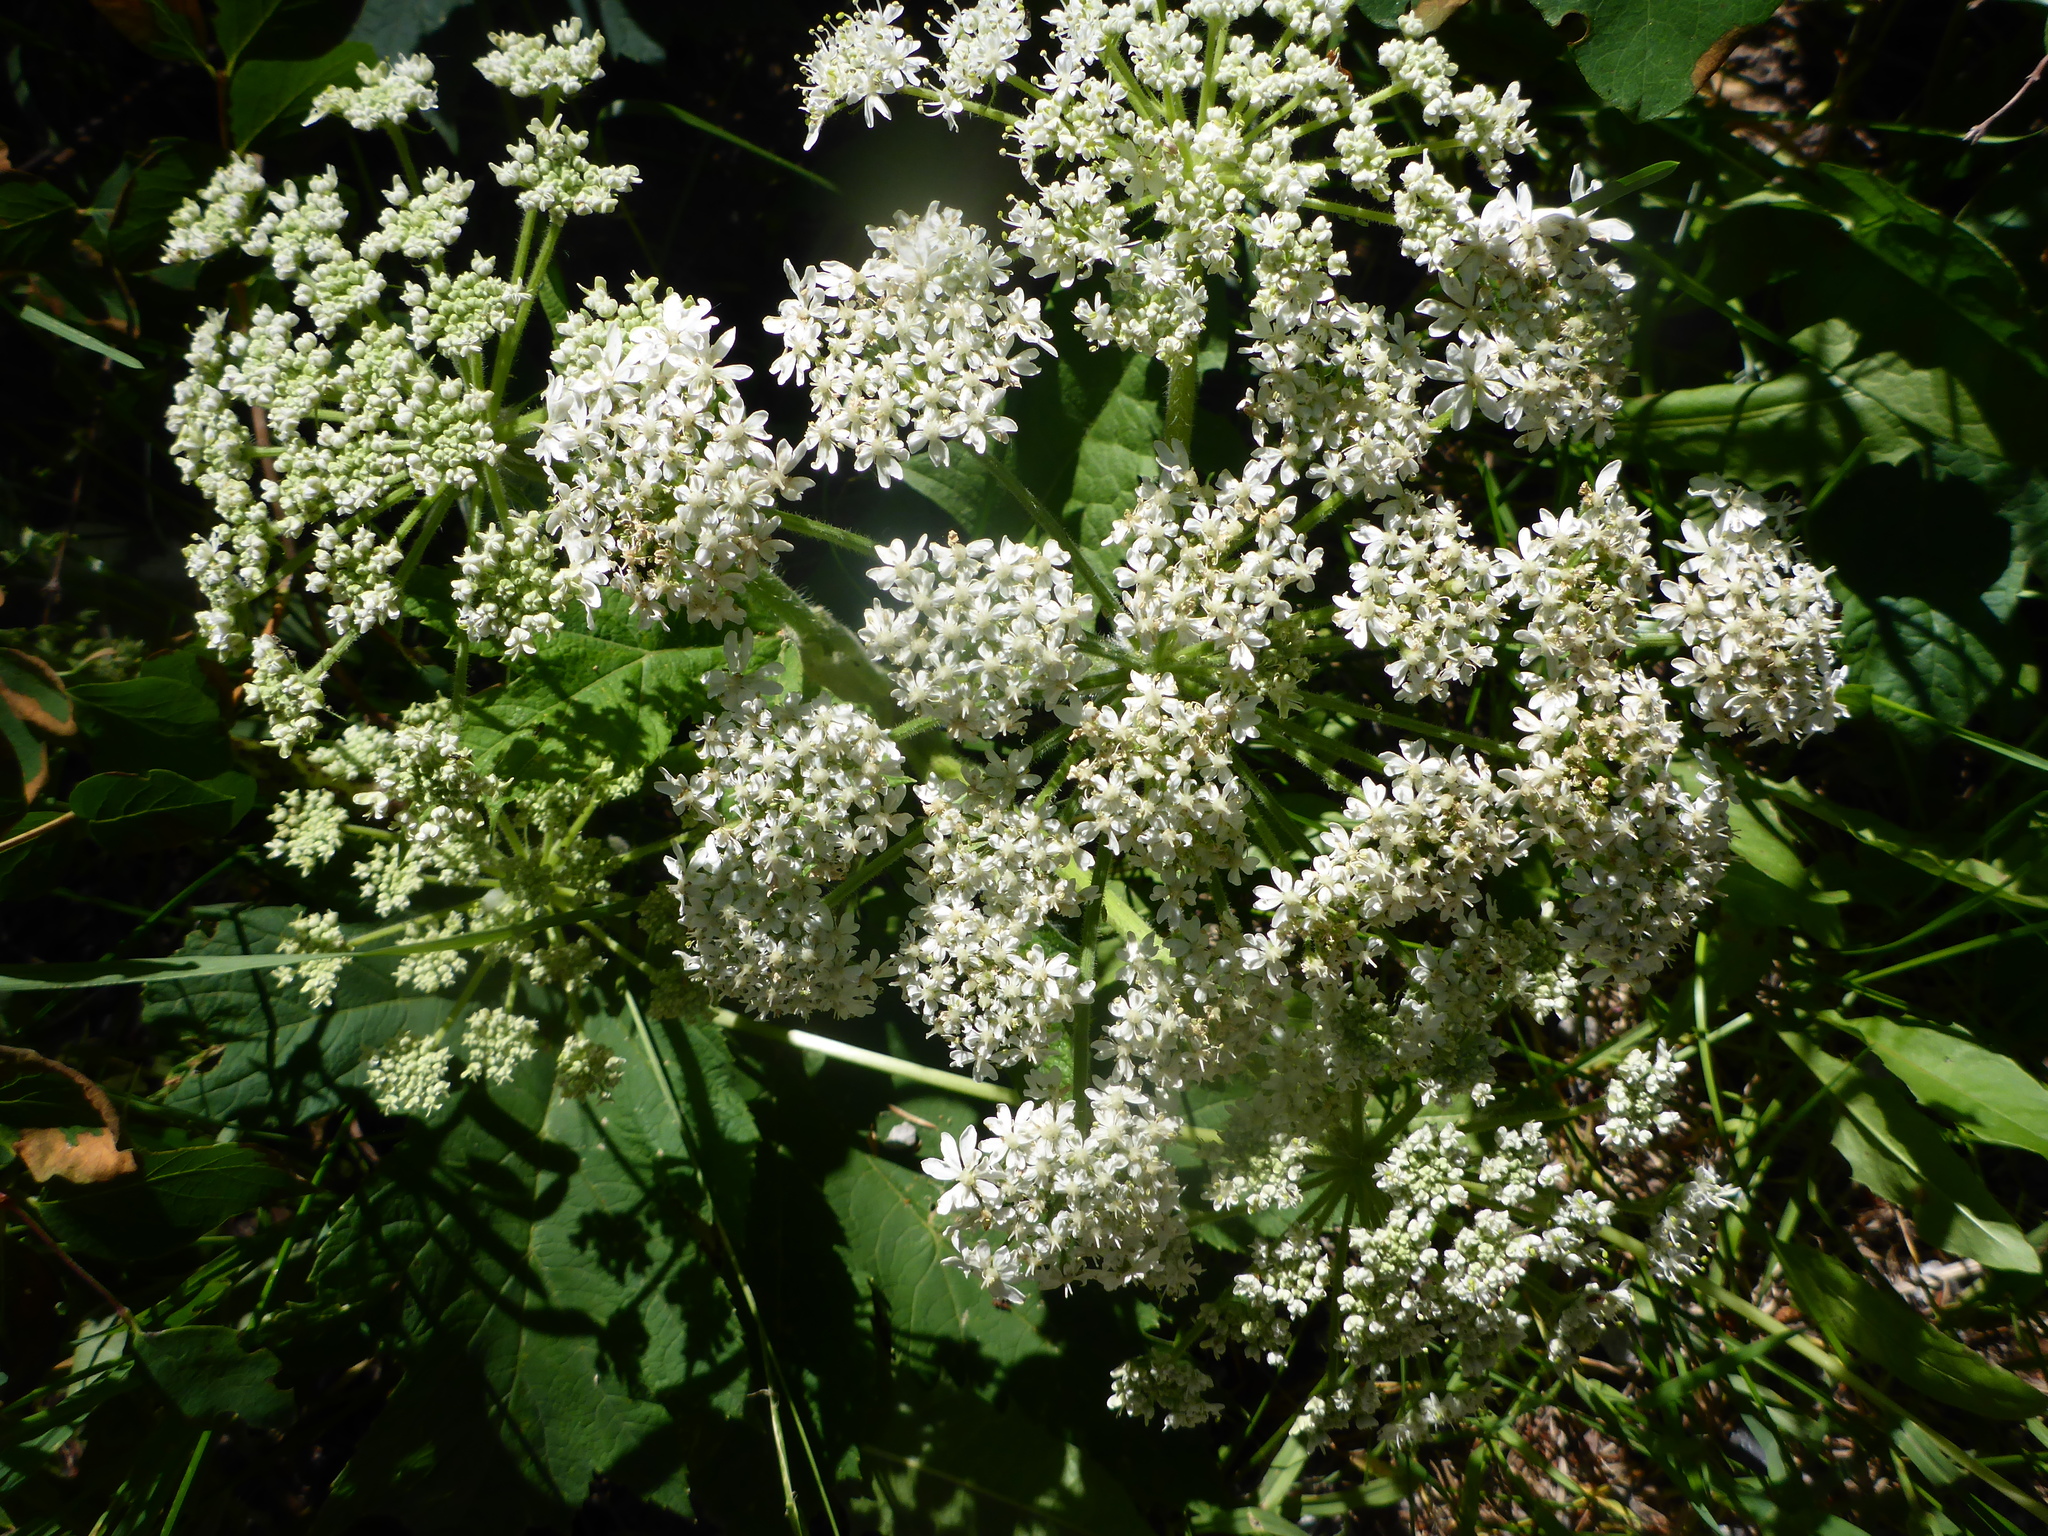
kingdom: Plantae
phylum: Tracheophyta
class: Magnoliopsida
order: Apiales
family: Apiaceae
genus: Heracleum
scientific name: Heracleum maximum
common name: American cow parsnip
